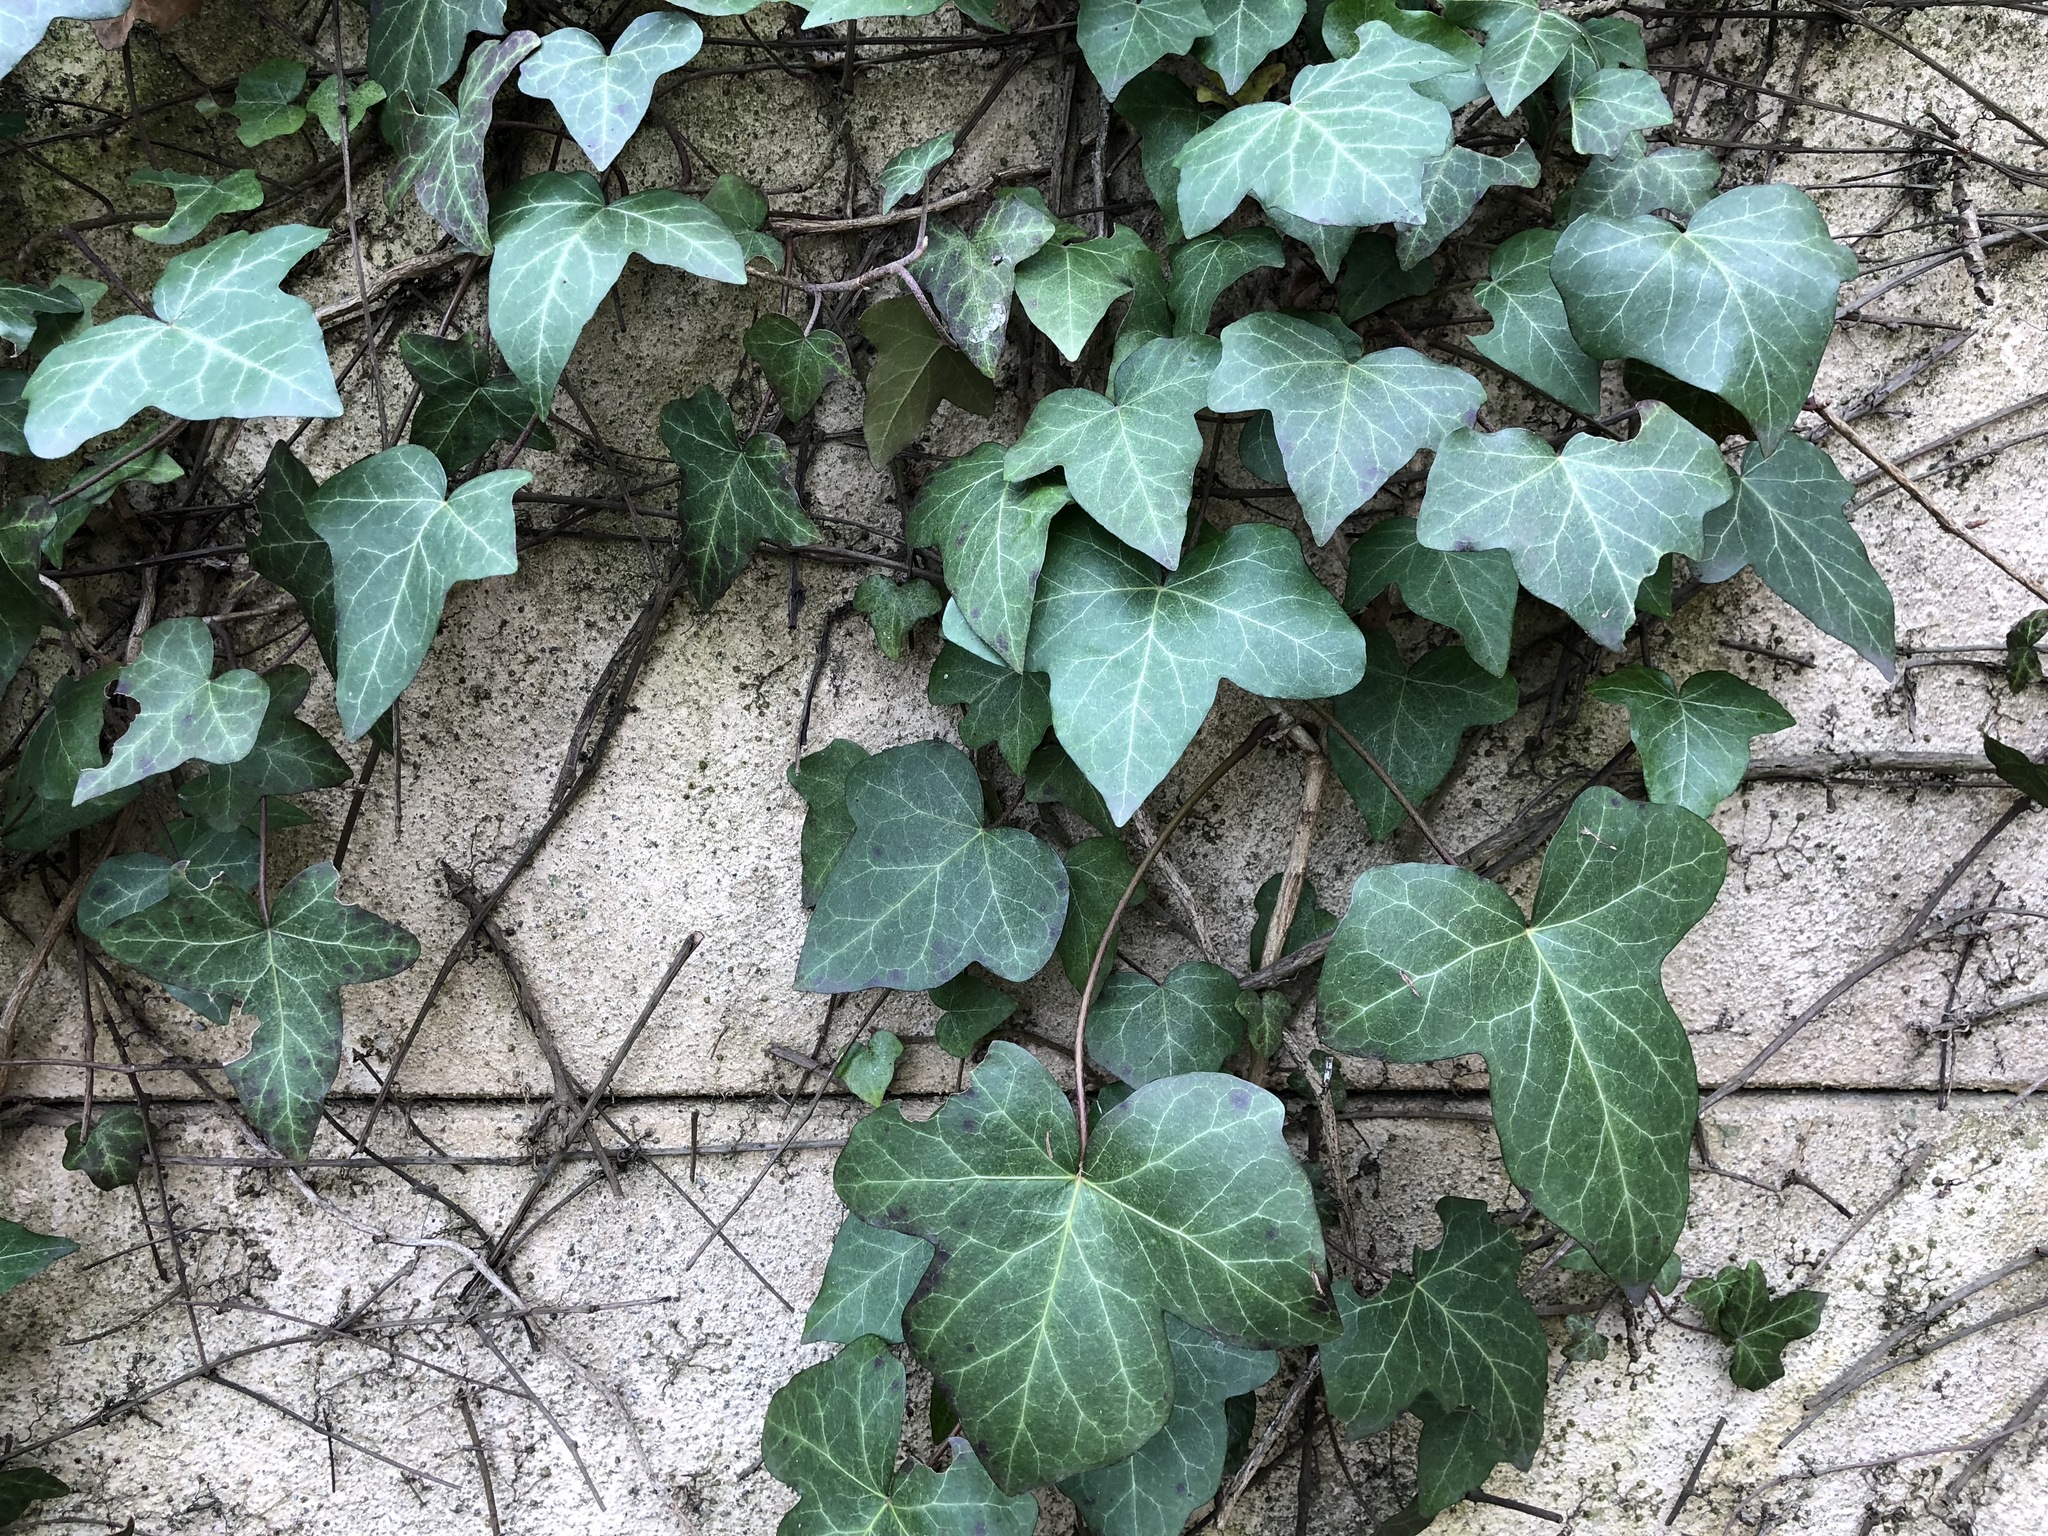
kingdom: Plantae
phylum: Tracheophyta
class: Magnoliopsida
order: Apiales
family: Araliaceae
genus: Hedera
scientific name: Hedera helix
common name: Ivy
